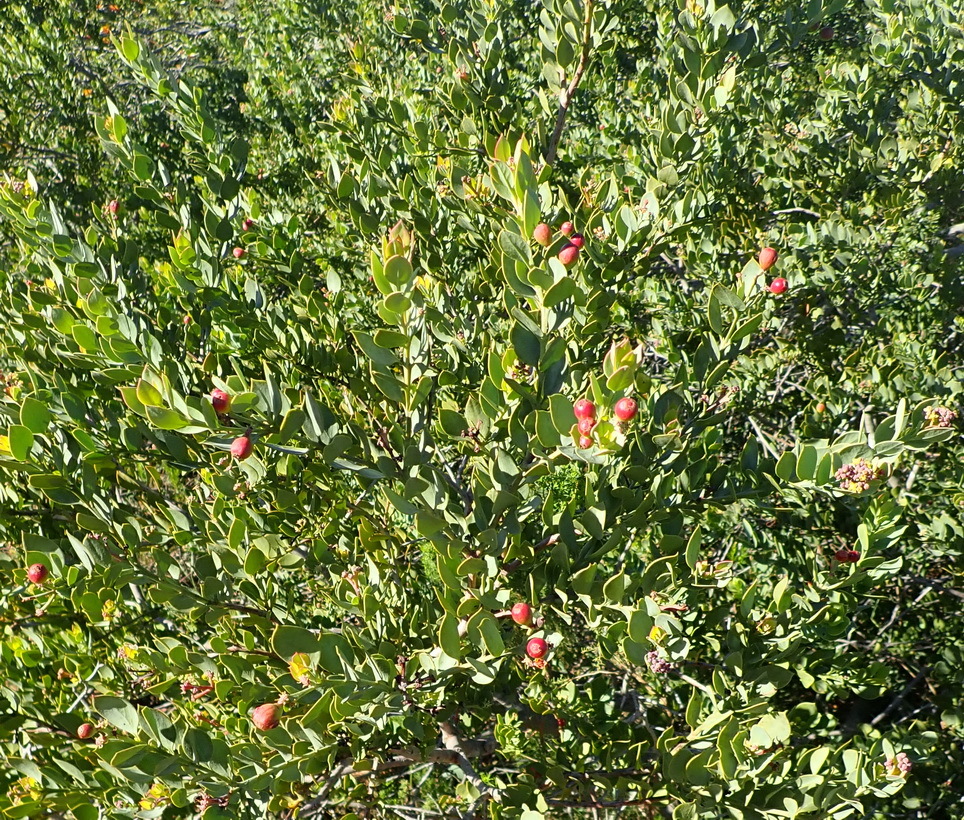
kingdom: Plantae
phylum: Tracheophyta
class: Magnoliopsida
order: Santalales
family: Santalaceae
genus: Osyris
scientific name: Osyris compressa
